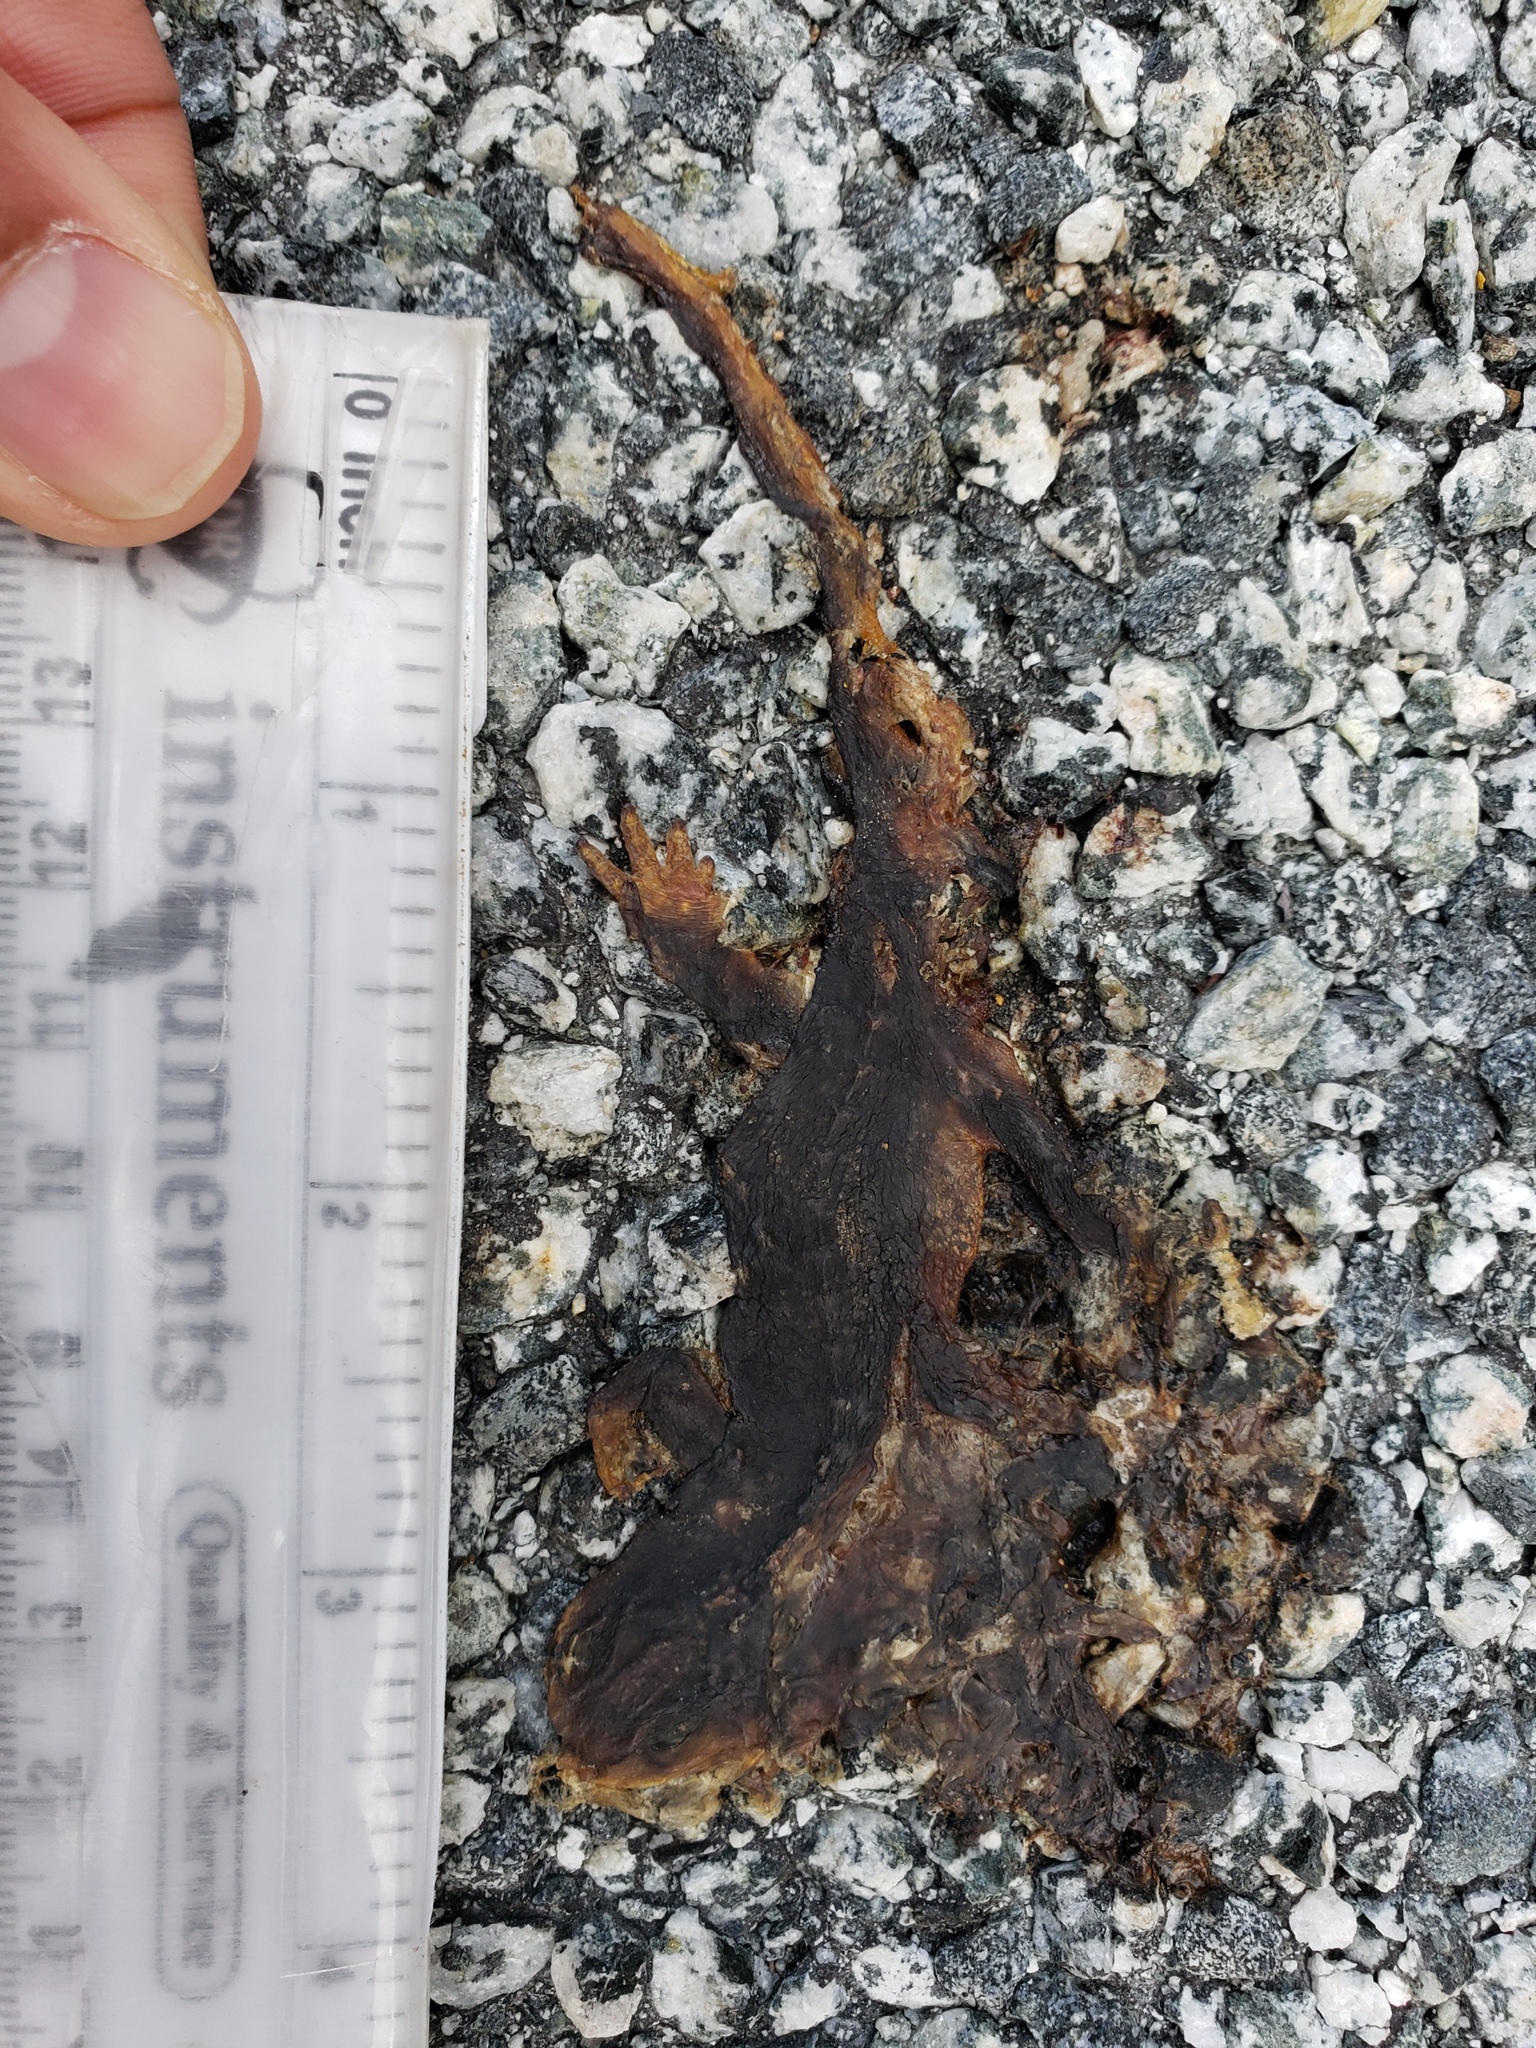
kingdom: Animalia
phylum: Chordata
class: Amphibia
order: Caudata
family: Salamandridae
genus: Taricha
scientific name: Taricha
